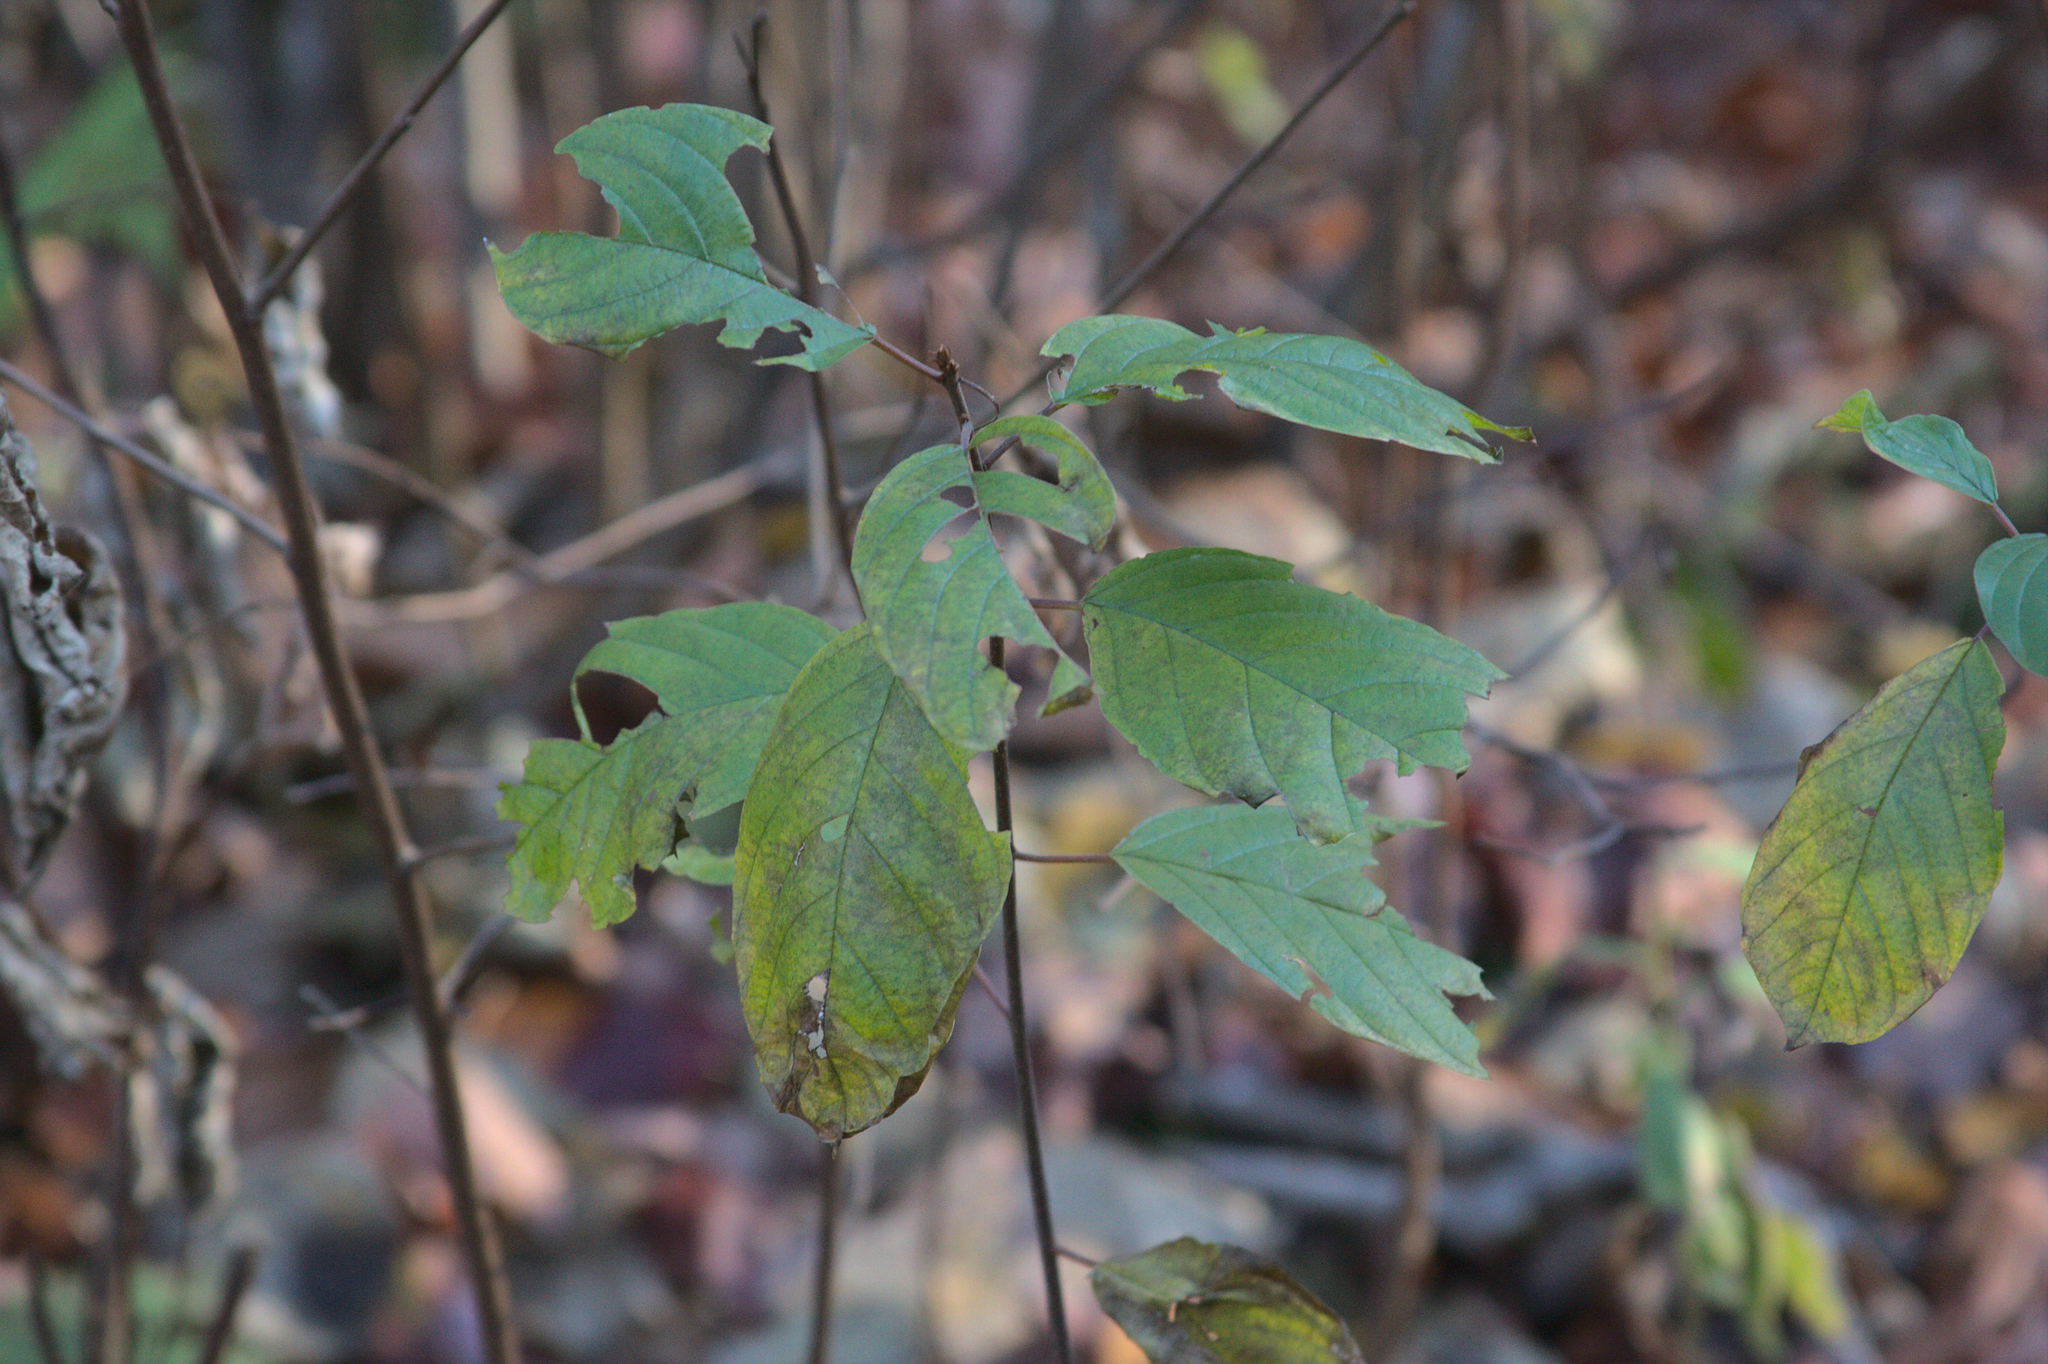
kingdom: Plantae
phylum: Tracheophyta
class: Magnoliopsida
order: Rosales
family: Rhamnaceae
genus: Frangula
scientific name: Frangula alnus
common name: Alder buckthorn
